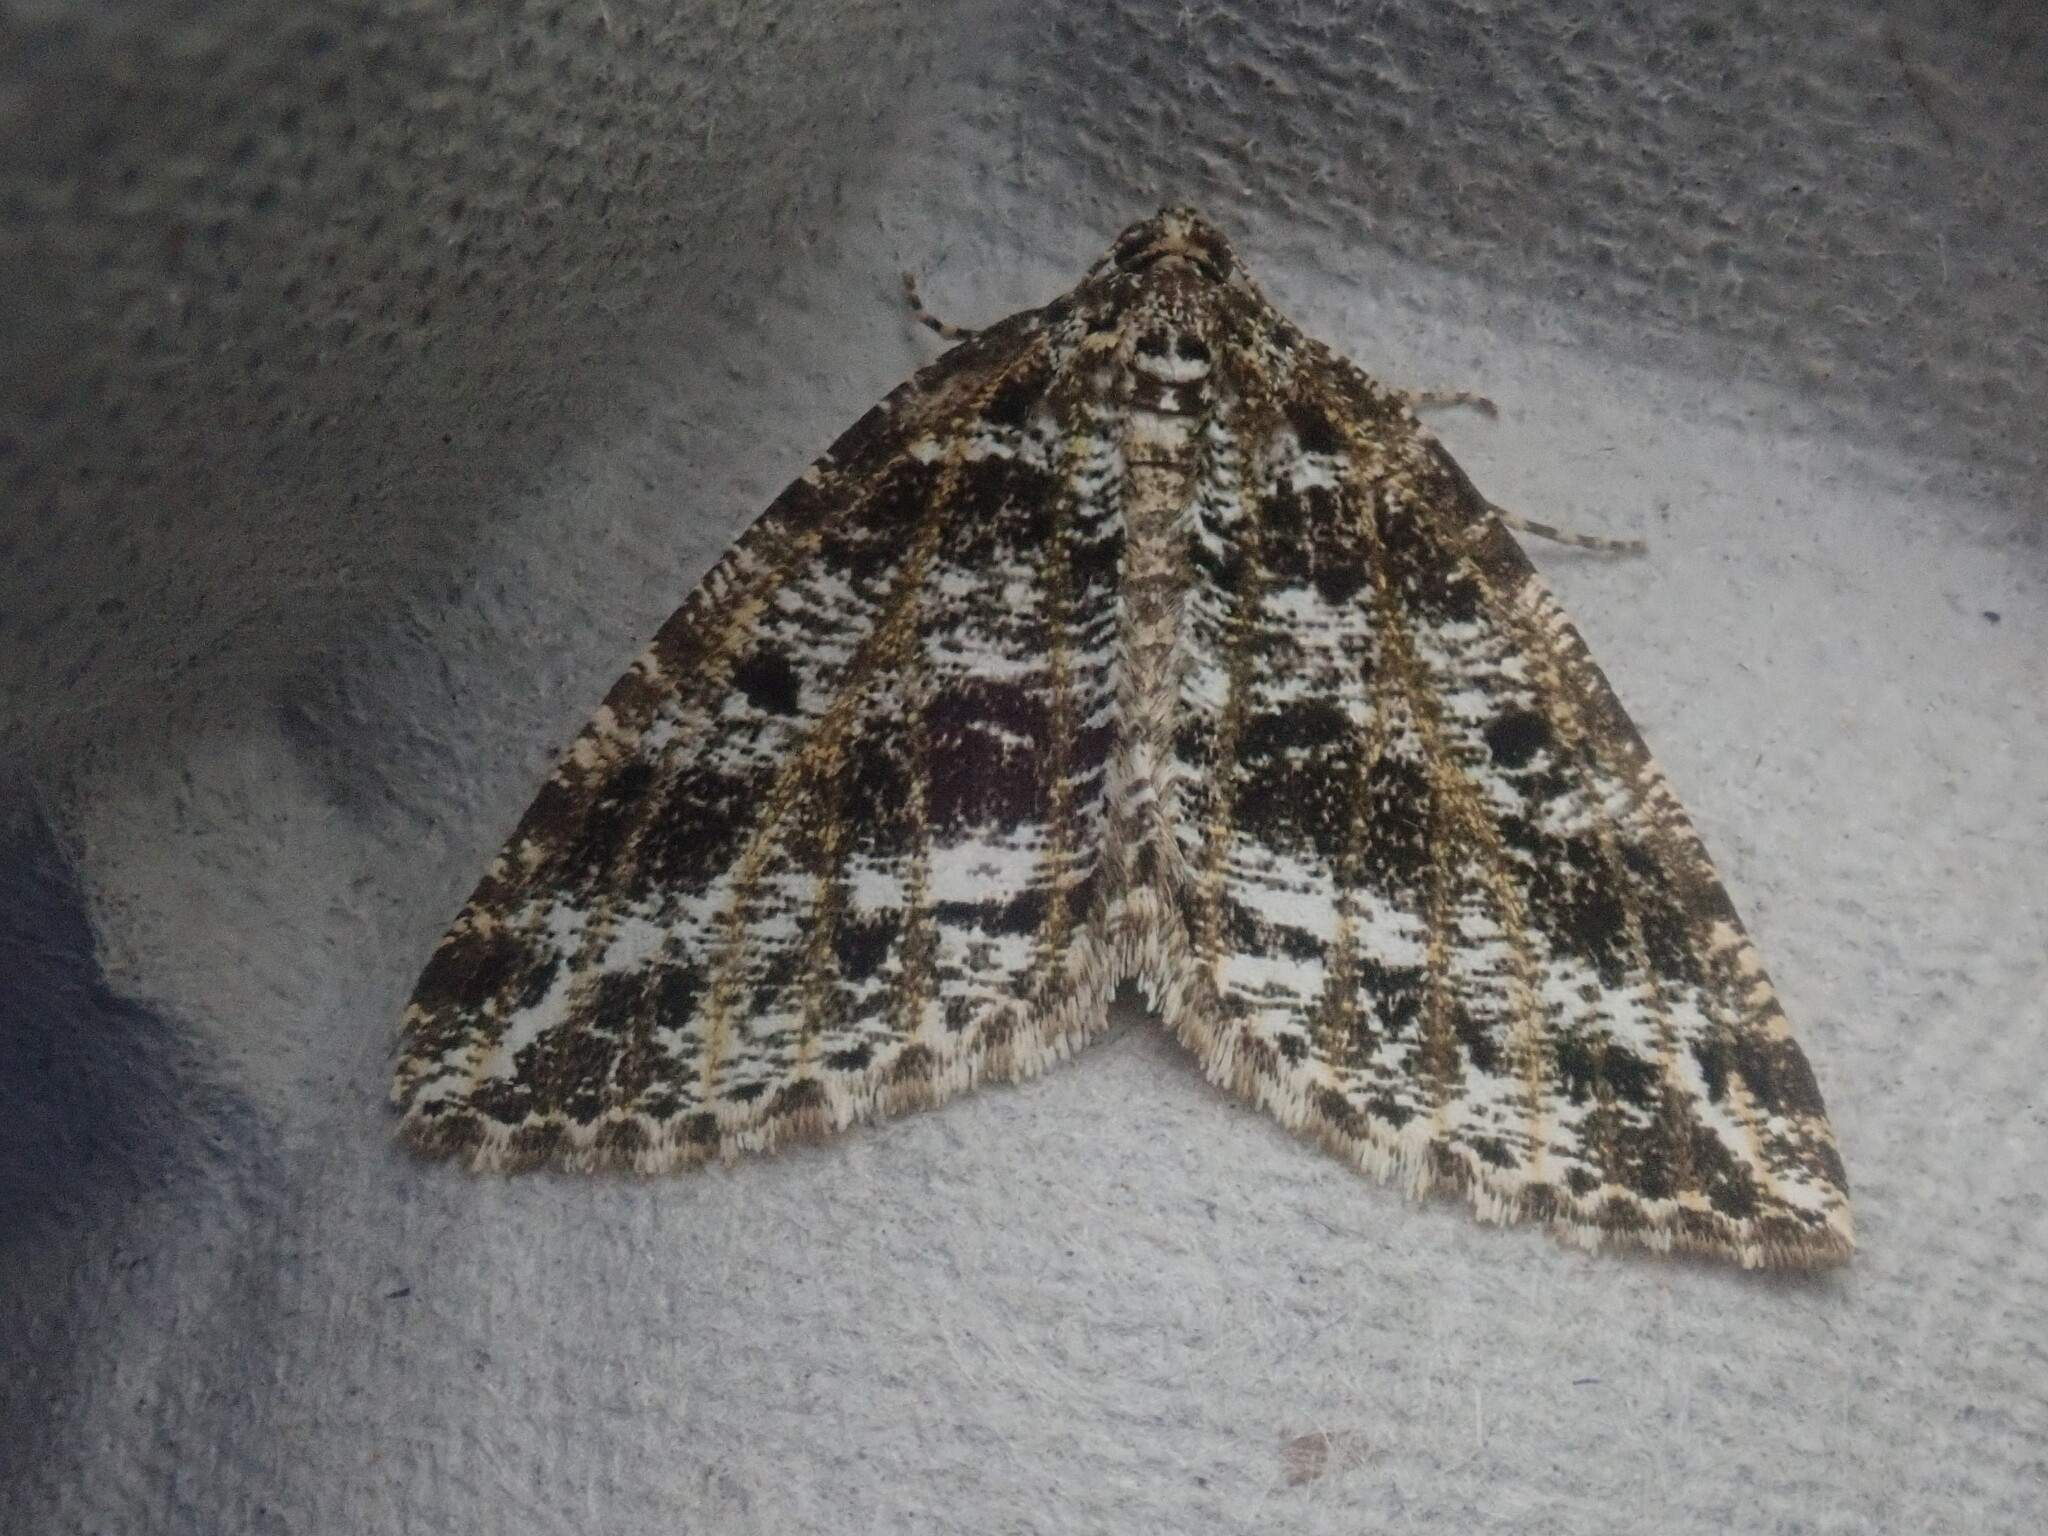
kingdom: Animalia
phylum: Arthropoda
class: Insecta
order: Lepidoptera
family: Geometridae
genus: Orthofidonia
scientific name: Orthofidonia tinctaria
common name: Marbled wave
